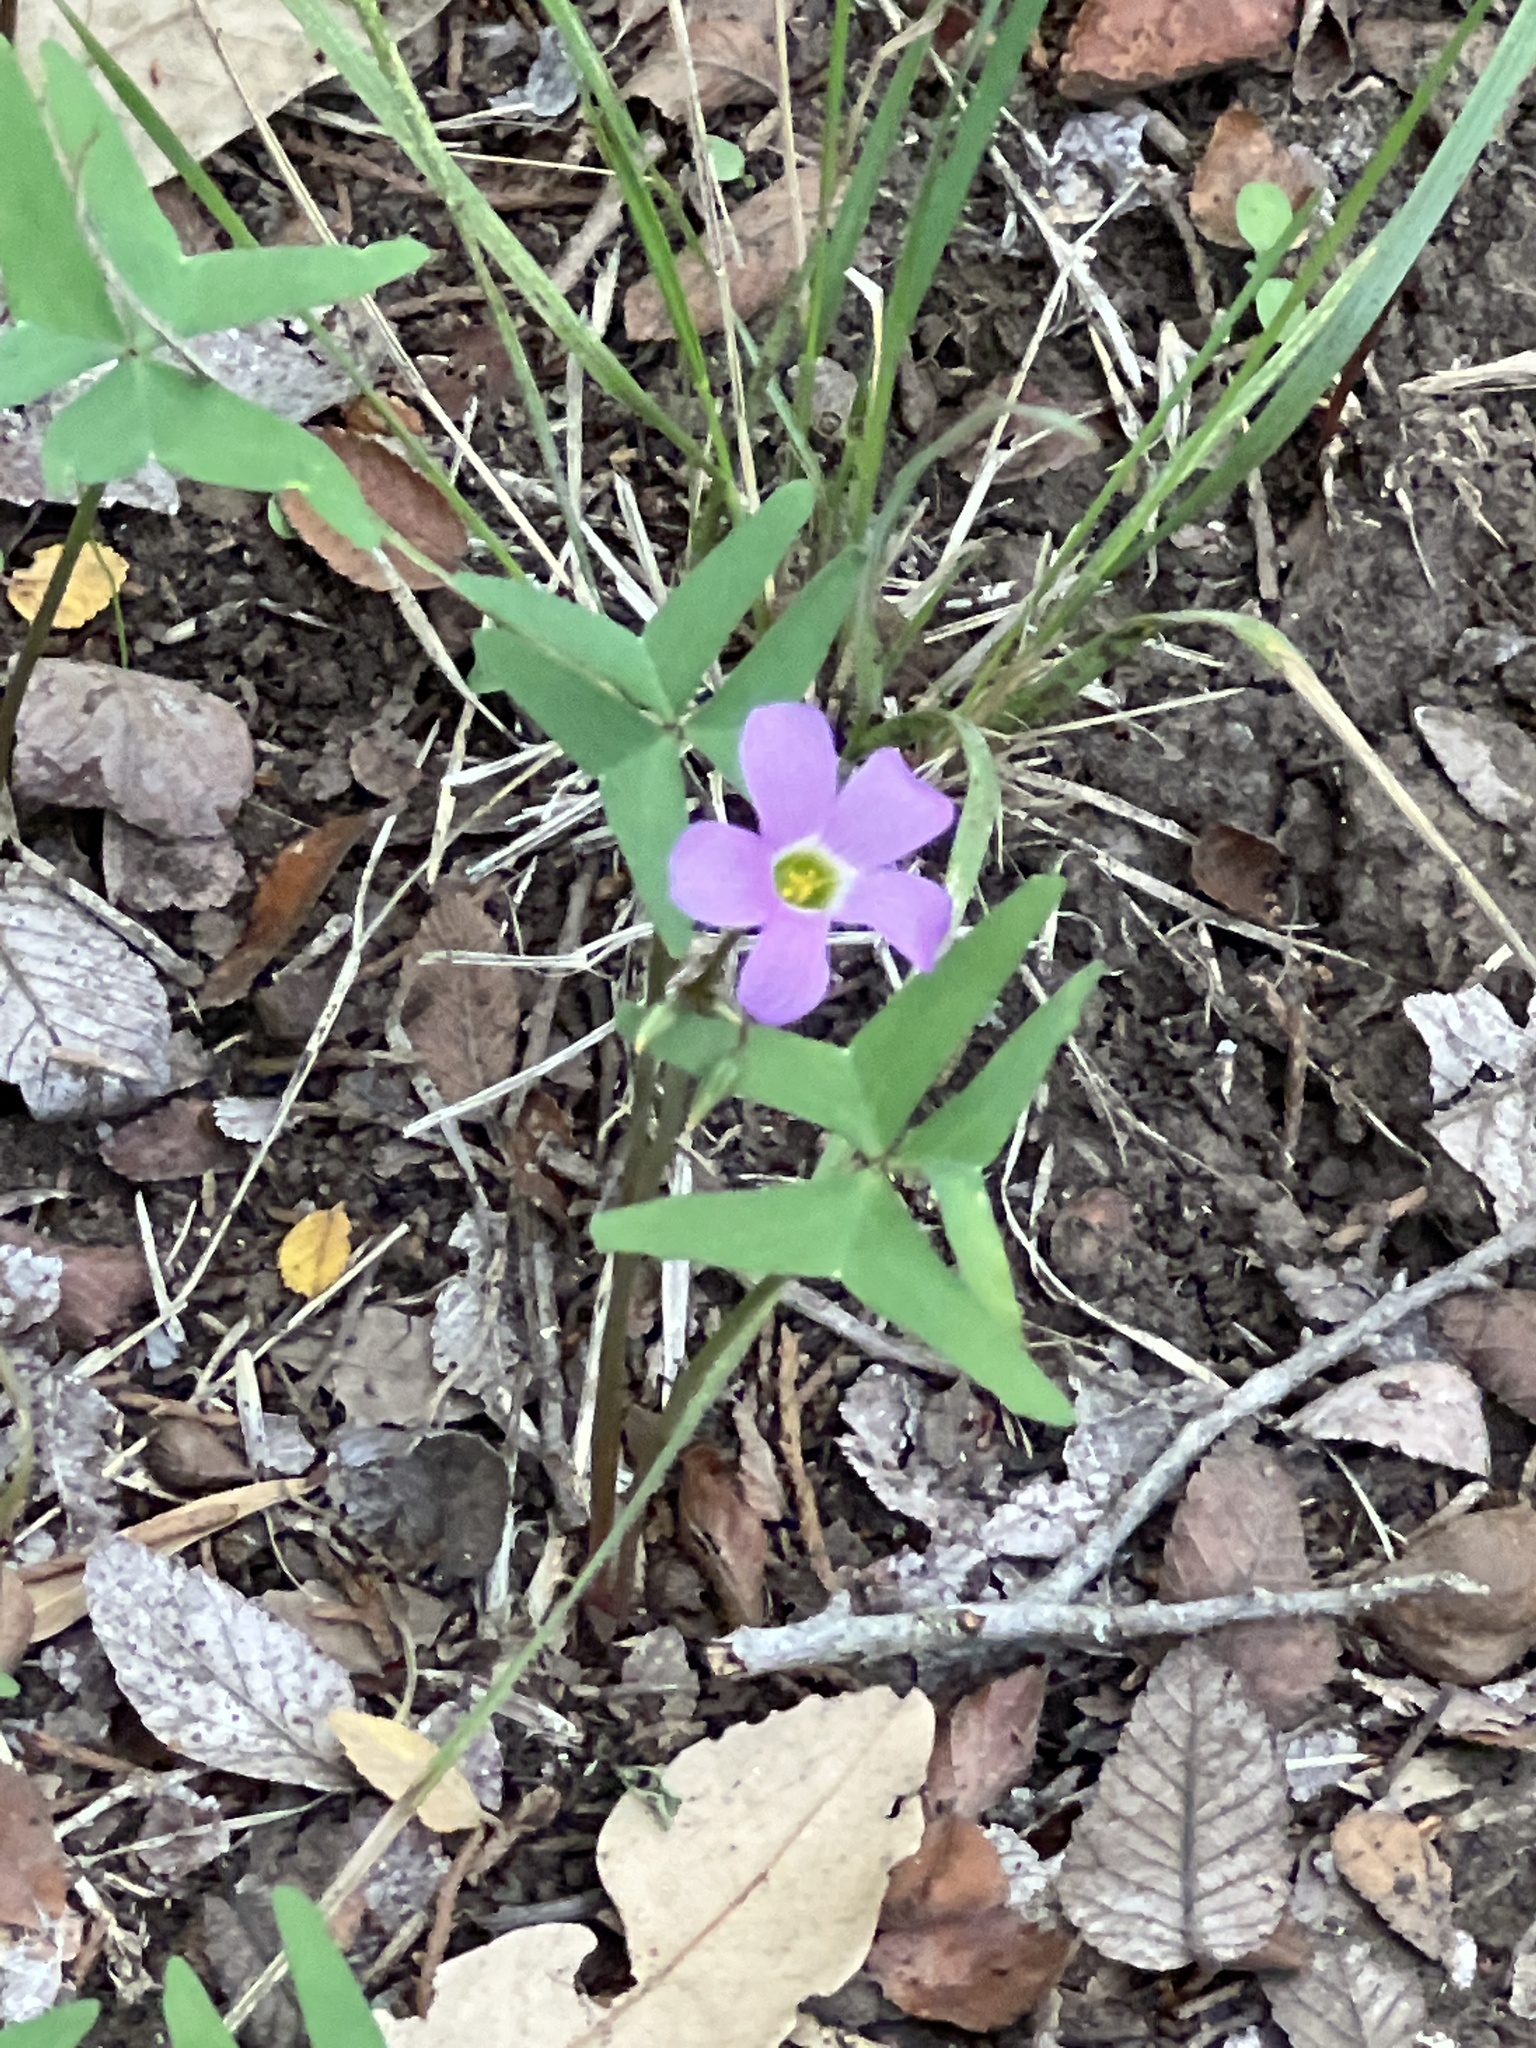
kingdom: Plantae
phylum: Tracheophyta
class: Magnoliopsida
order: Oxalidales
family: Oxalidaceae
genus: Oxalis
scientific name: Oxalis drummondii
